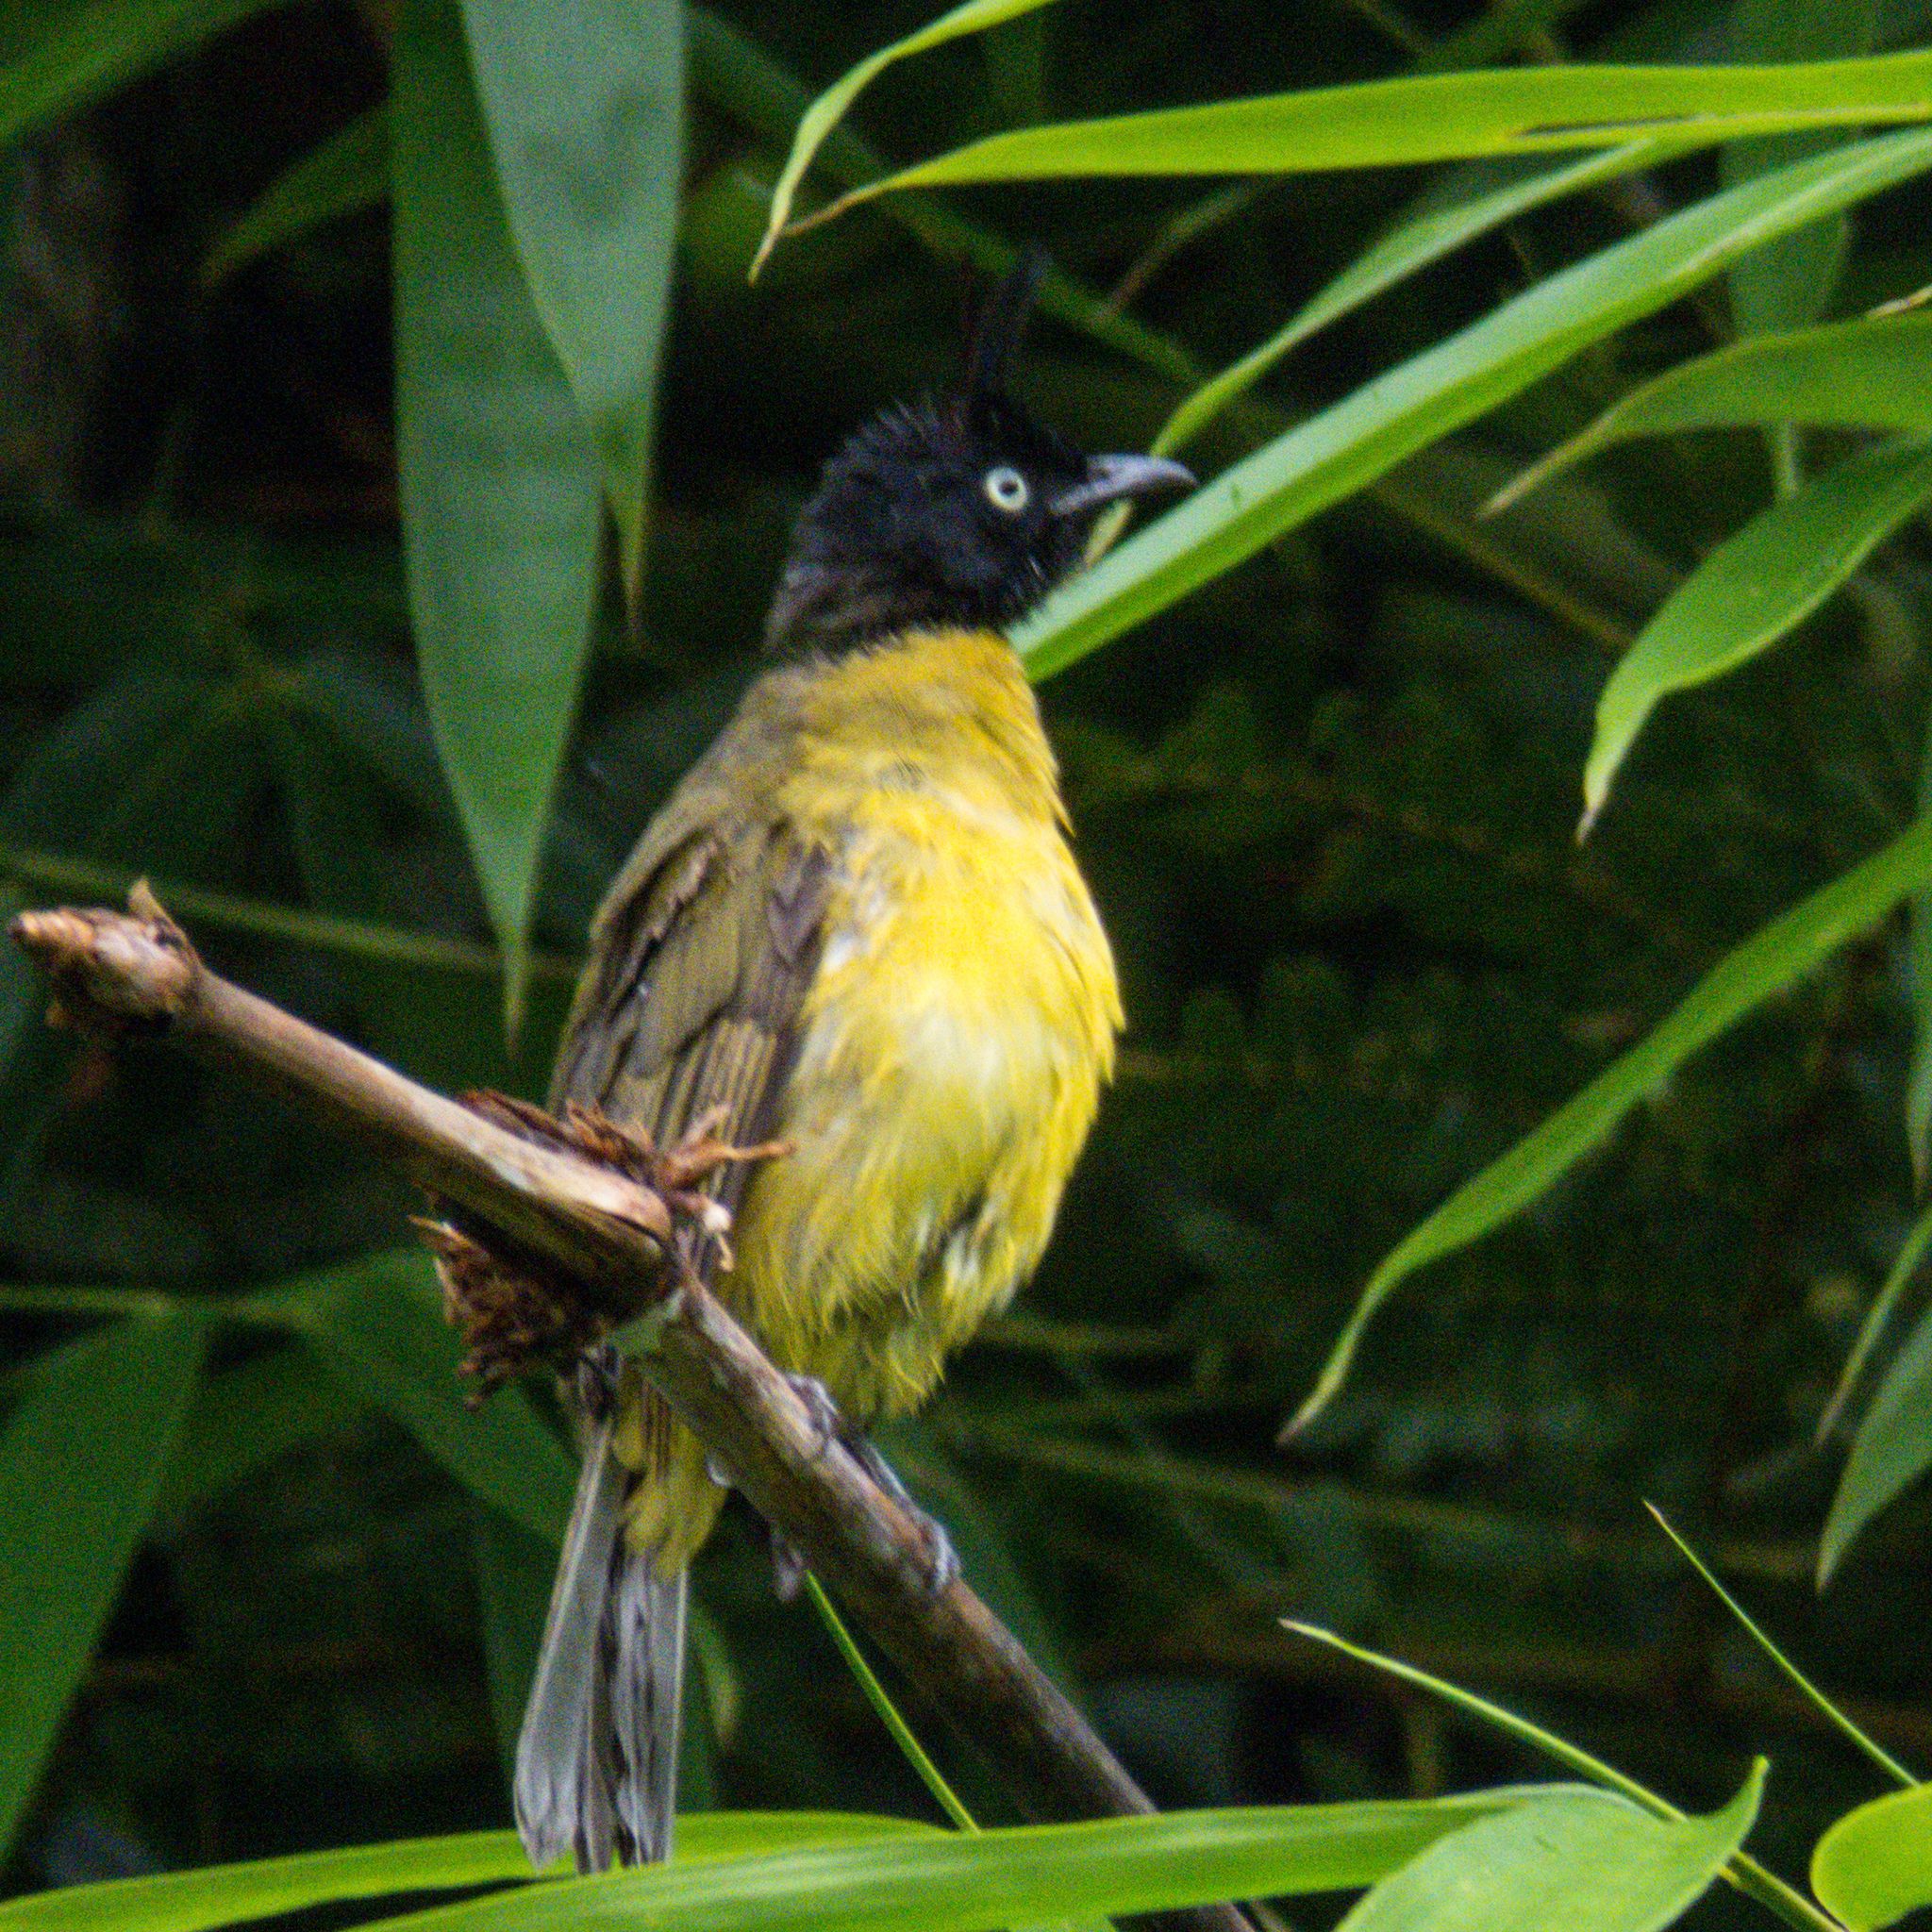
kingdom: Animalia
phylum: Chordata
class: Aves
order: Passeriformes
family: Pycnonotidae
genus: Pycnonotus
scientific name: Pycnonotus flaviventris
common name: Black-crested bulbul
